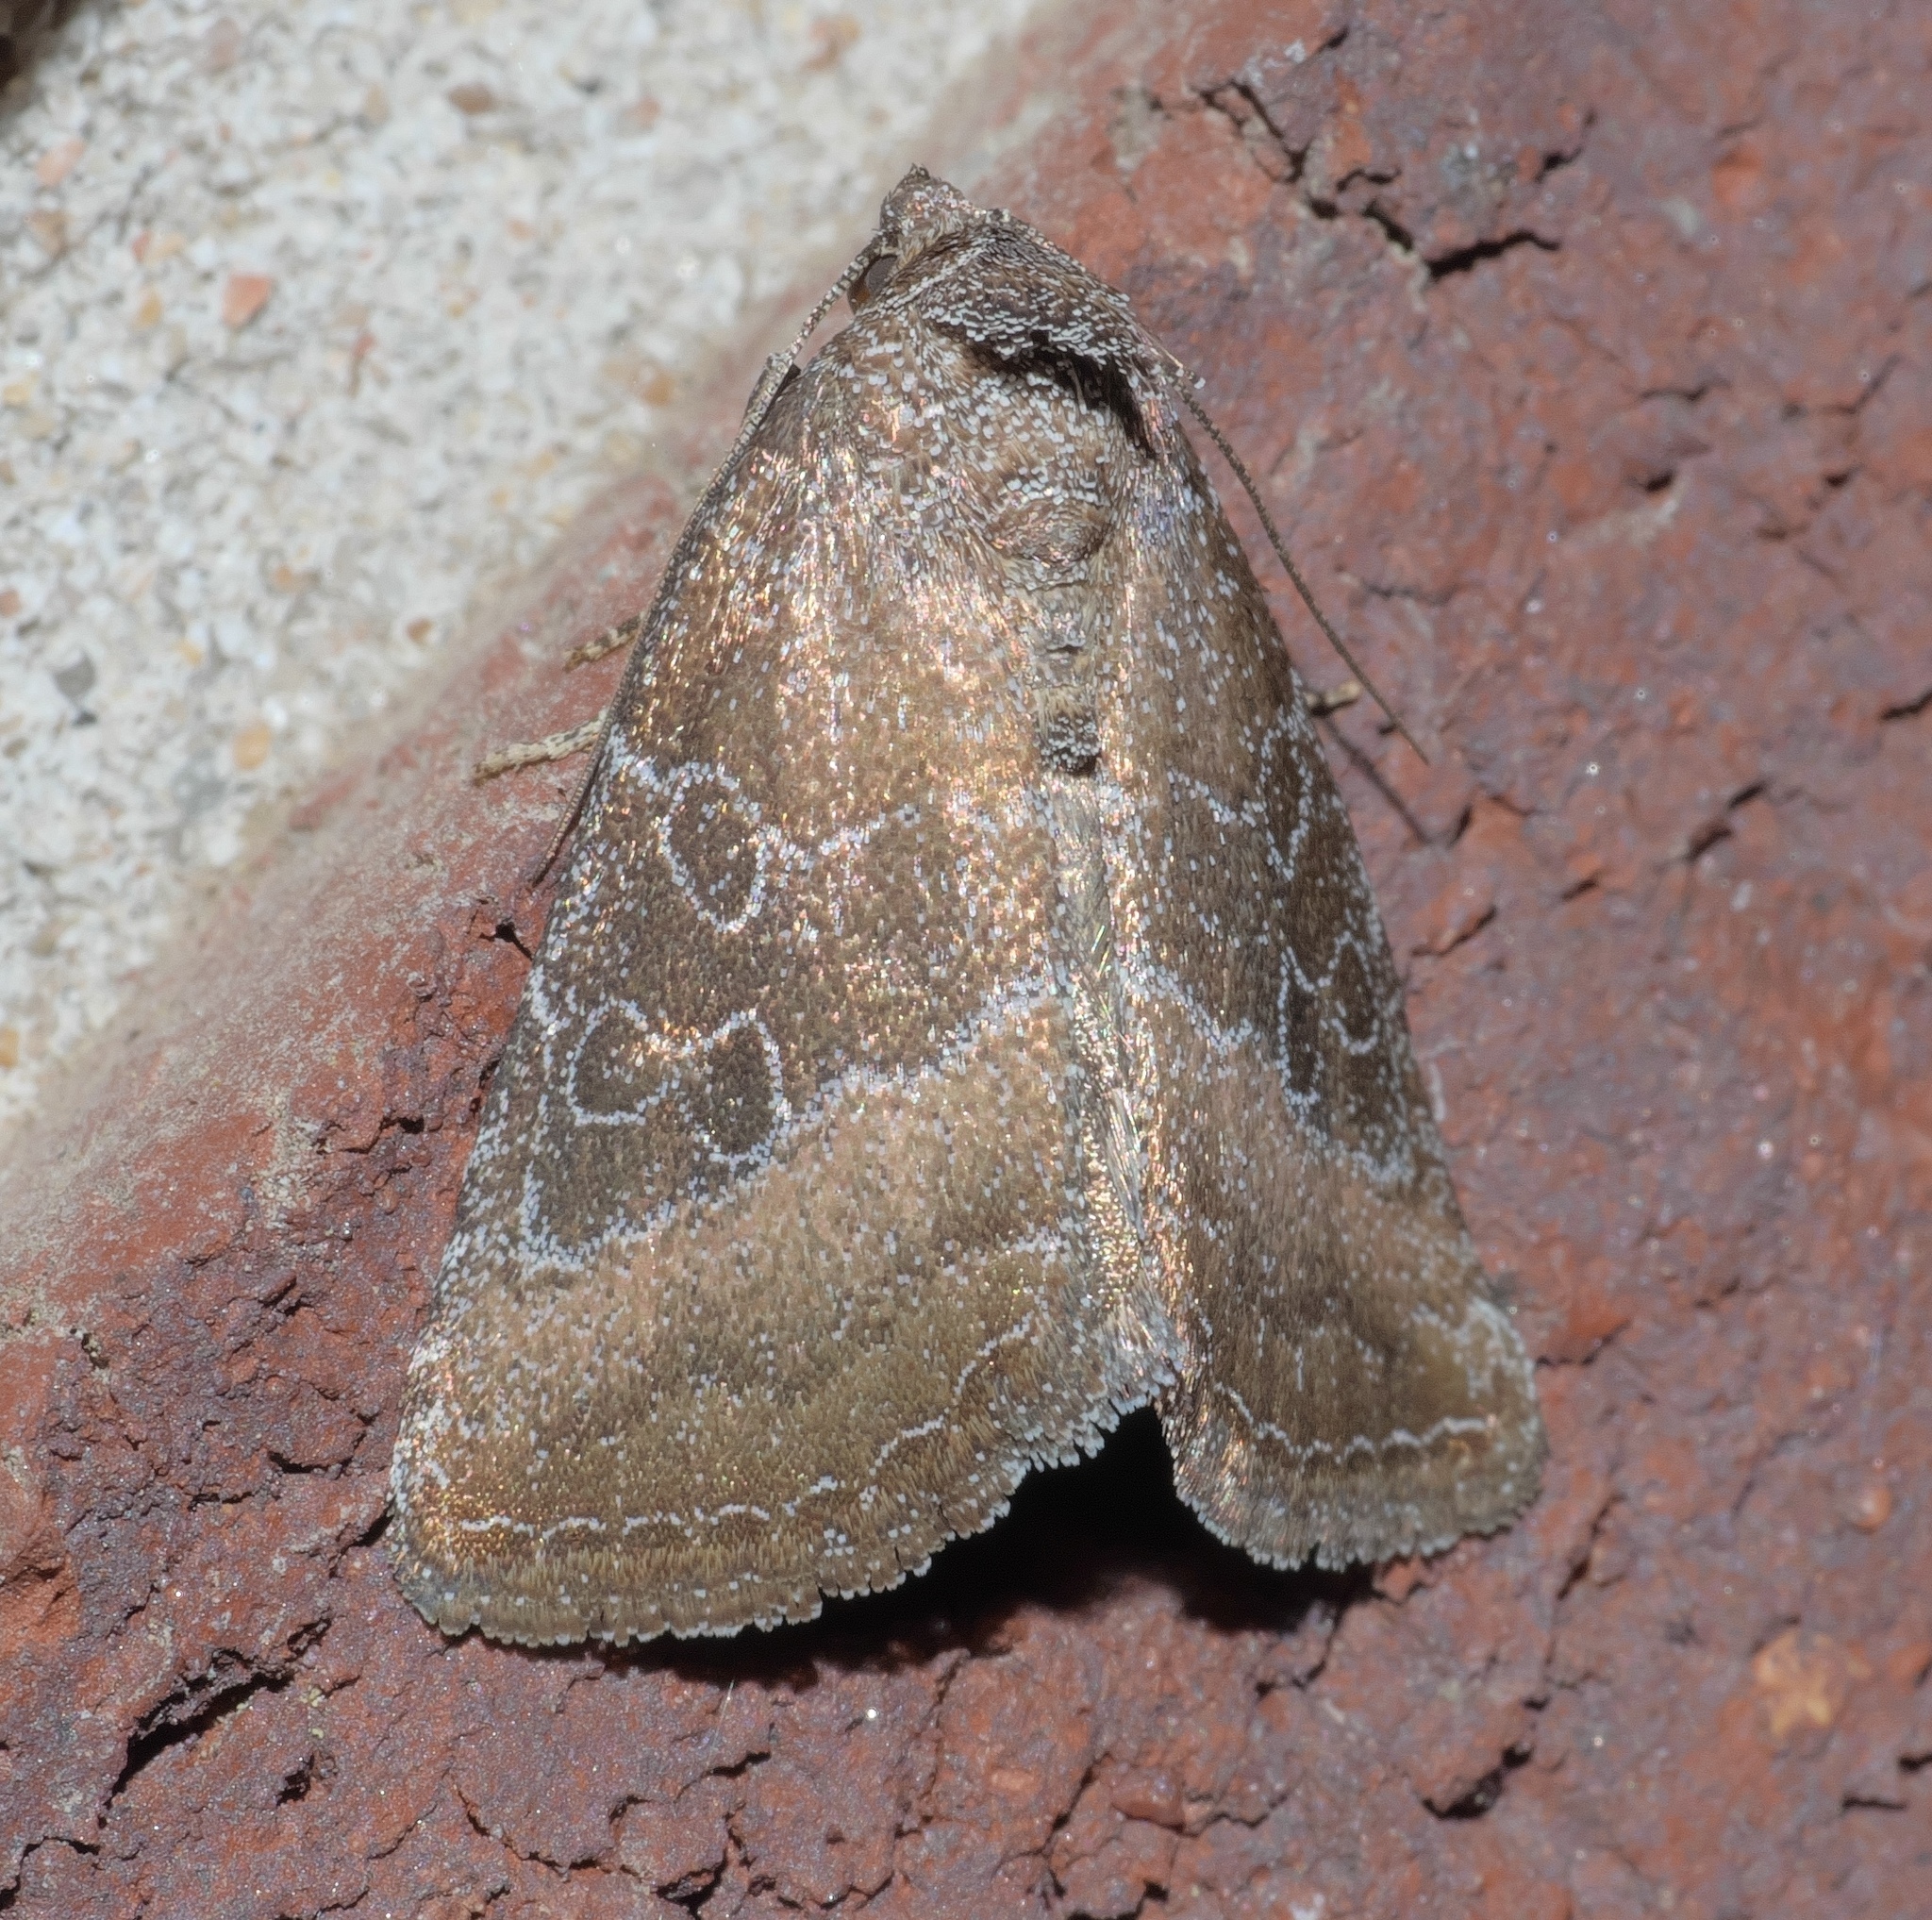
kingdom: Animalia
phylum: Arthropoda
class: Insecta
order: Lepidoptera
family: Noctuidae
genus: Ogdoconta
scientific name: Ogdoconta cinereola
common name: Common pinkband
